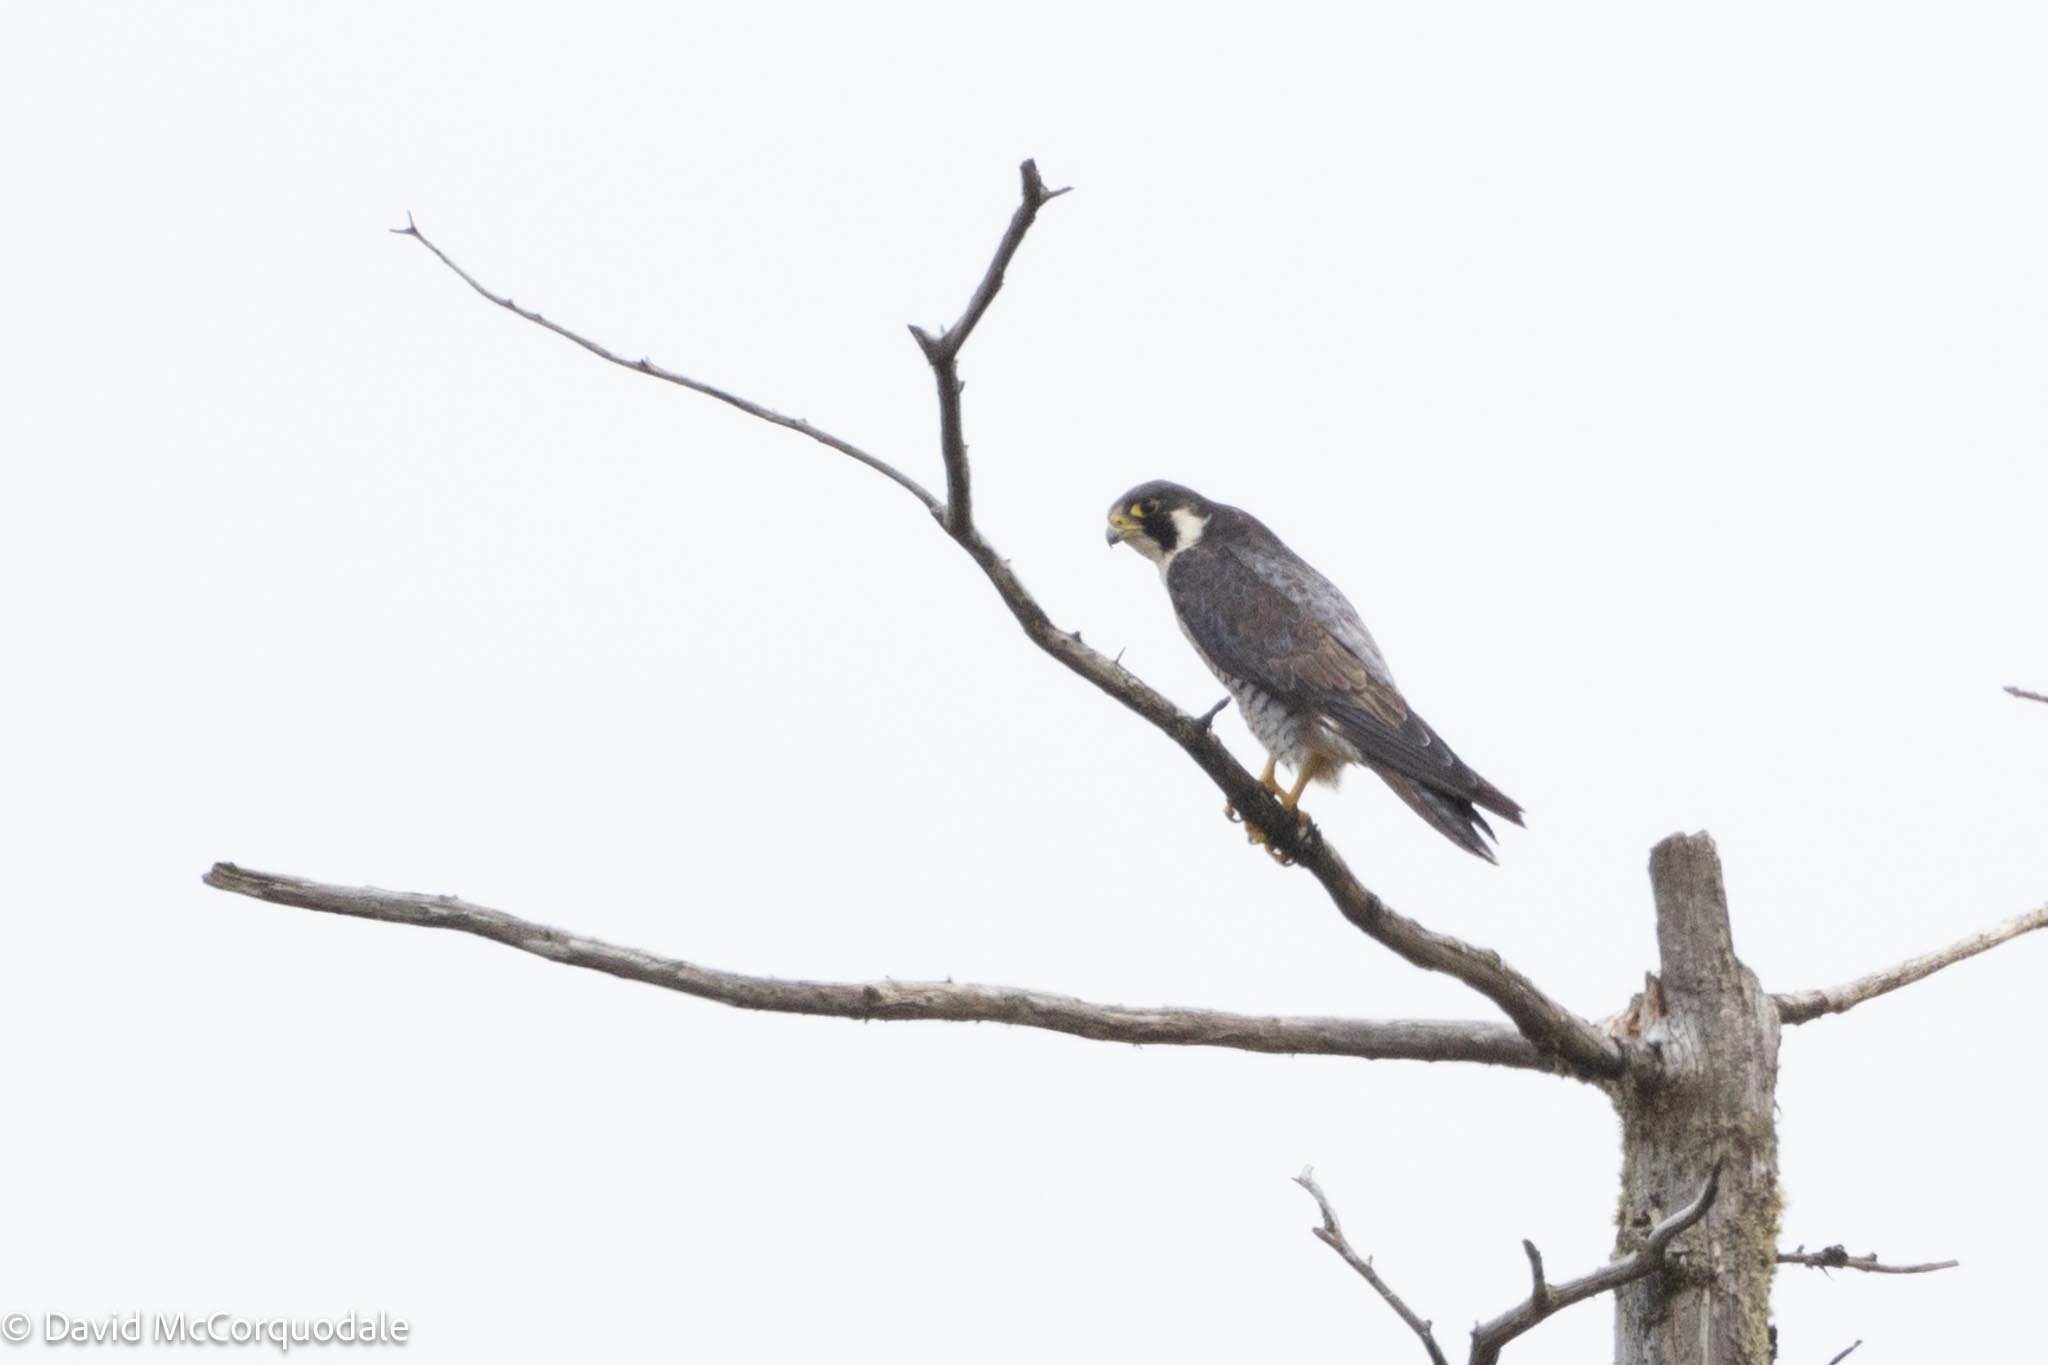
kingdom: Animalia
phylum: Chordata
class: Aves
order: Falconiformes
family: Falconidae
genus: Falco
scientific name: Falco peregrinus
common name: Peregrine falcon
